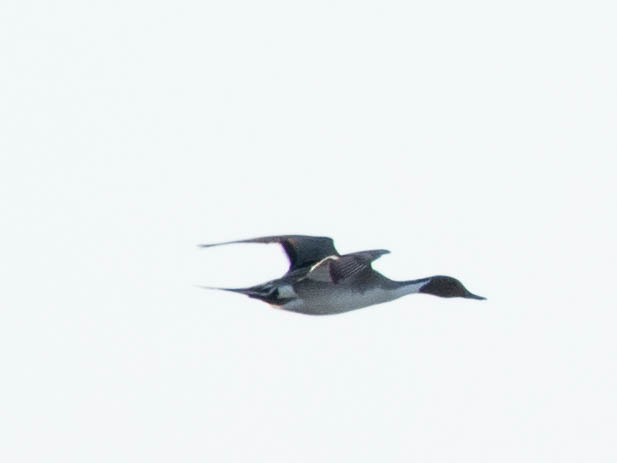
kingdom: Animalia
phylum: Chordata
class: Aves
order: Anseriformes
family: Anatidae
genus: Anas
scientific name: Anas acuta
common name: Northern pintail
